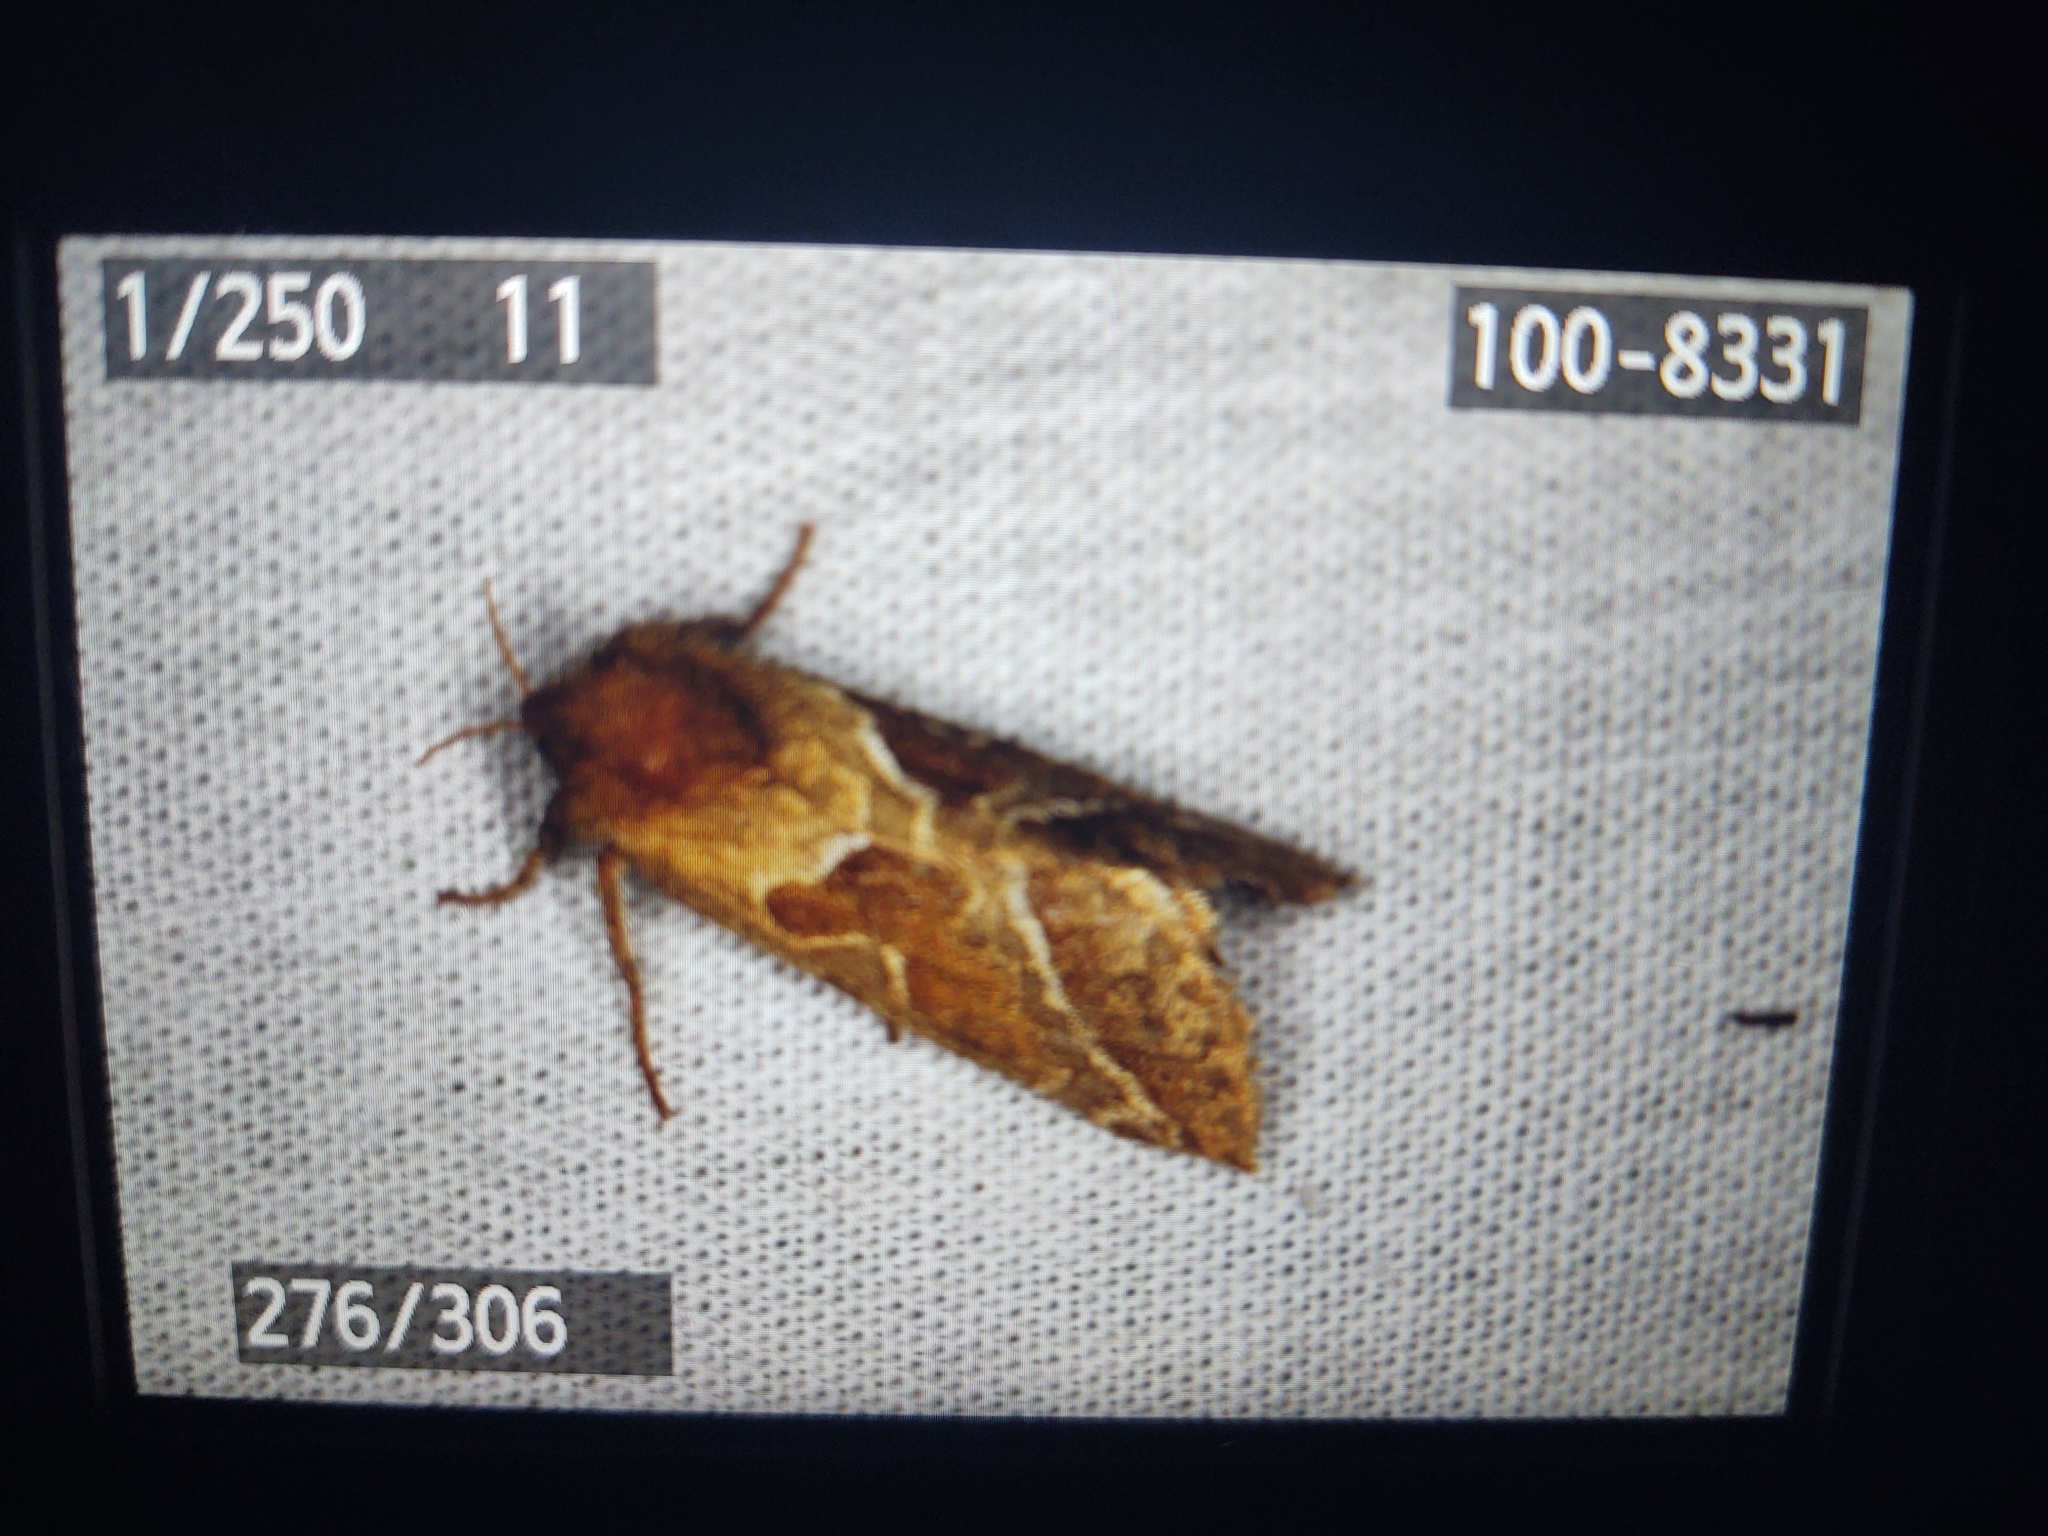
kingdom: Animalia
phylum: Arthropoda
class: Insecta
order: Lepidoptera
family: Hepialidae
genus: Triodia
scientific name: Triodia sylvina
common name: Orange swift
